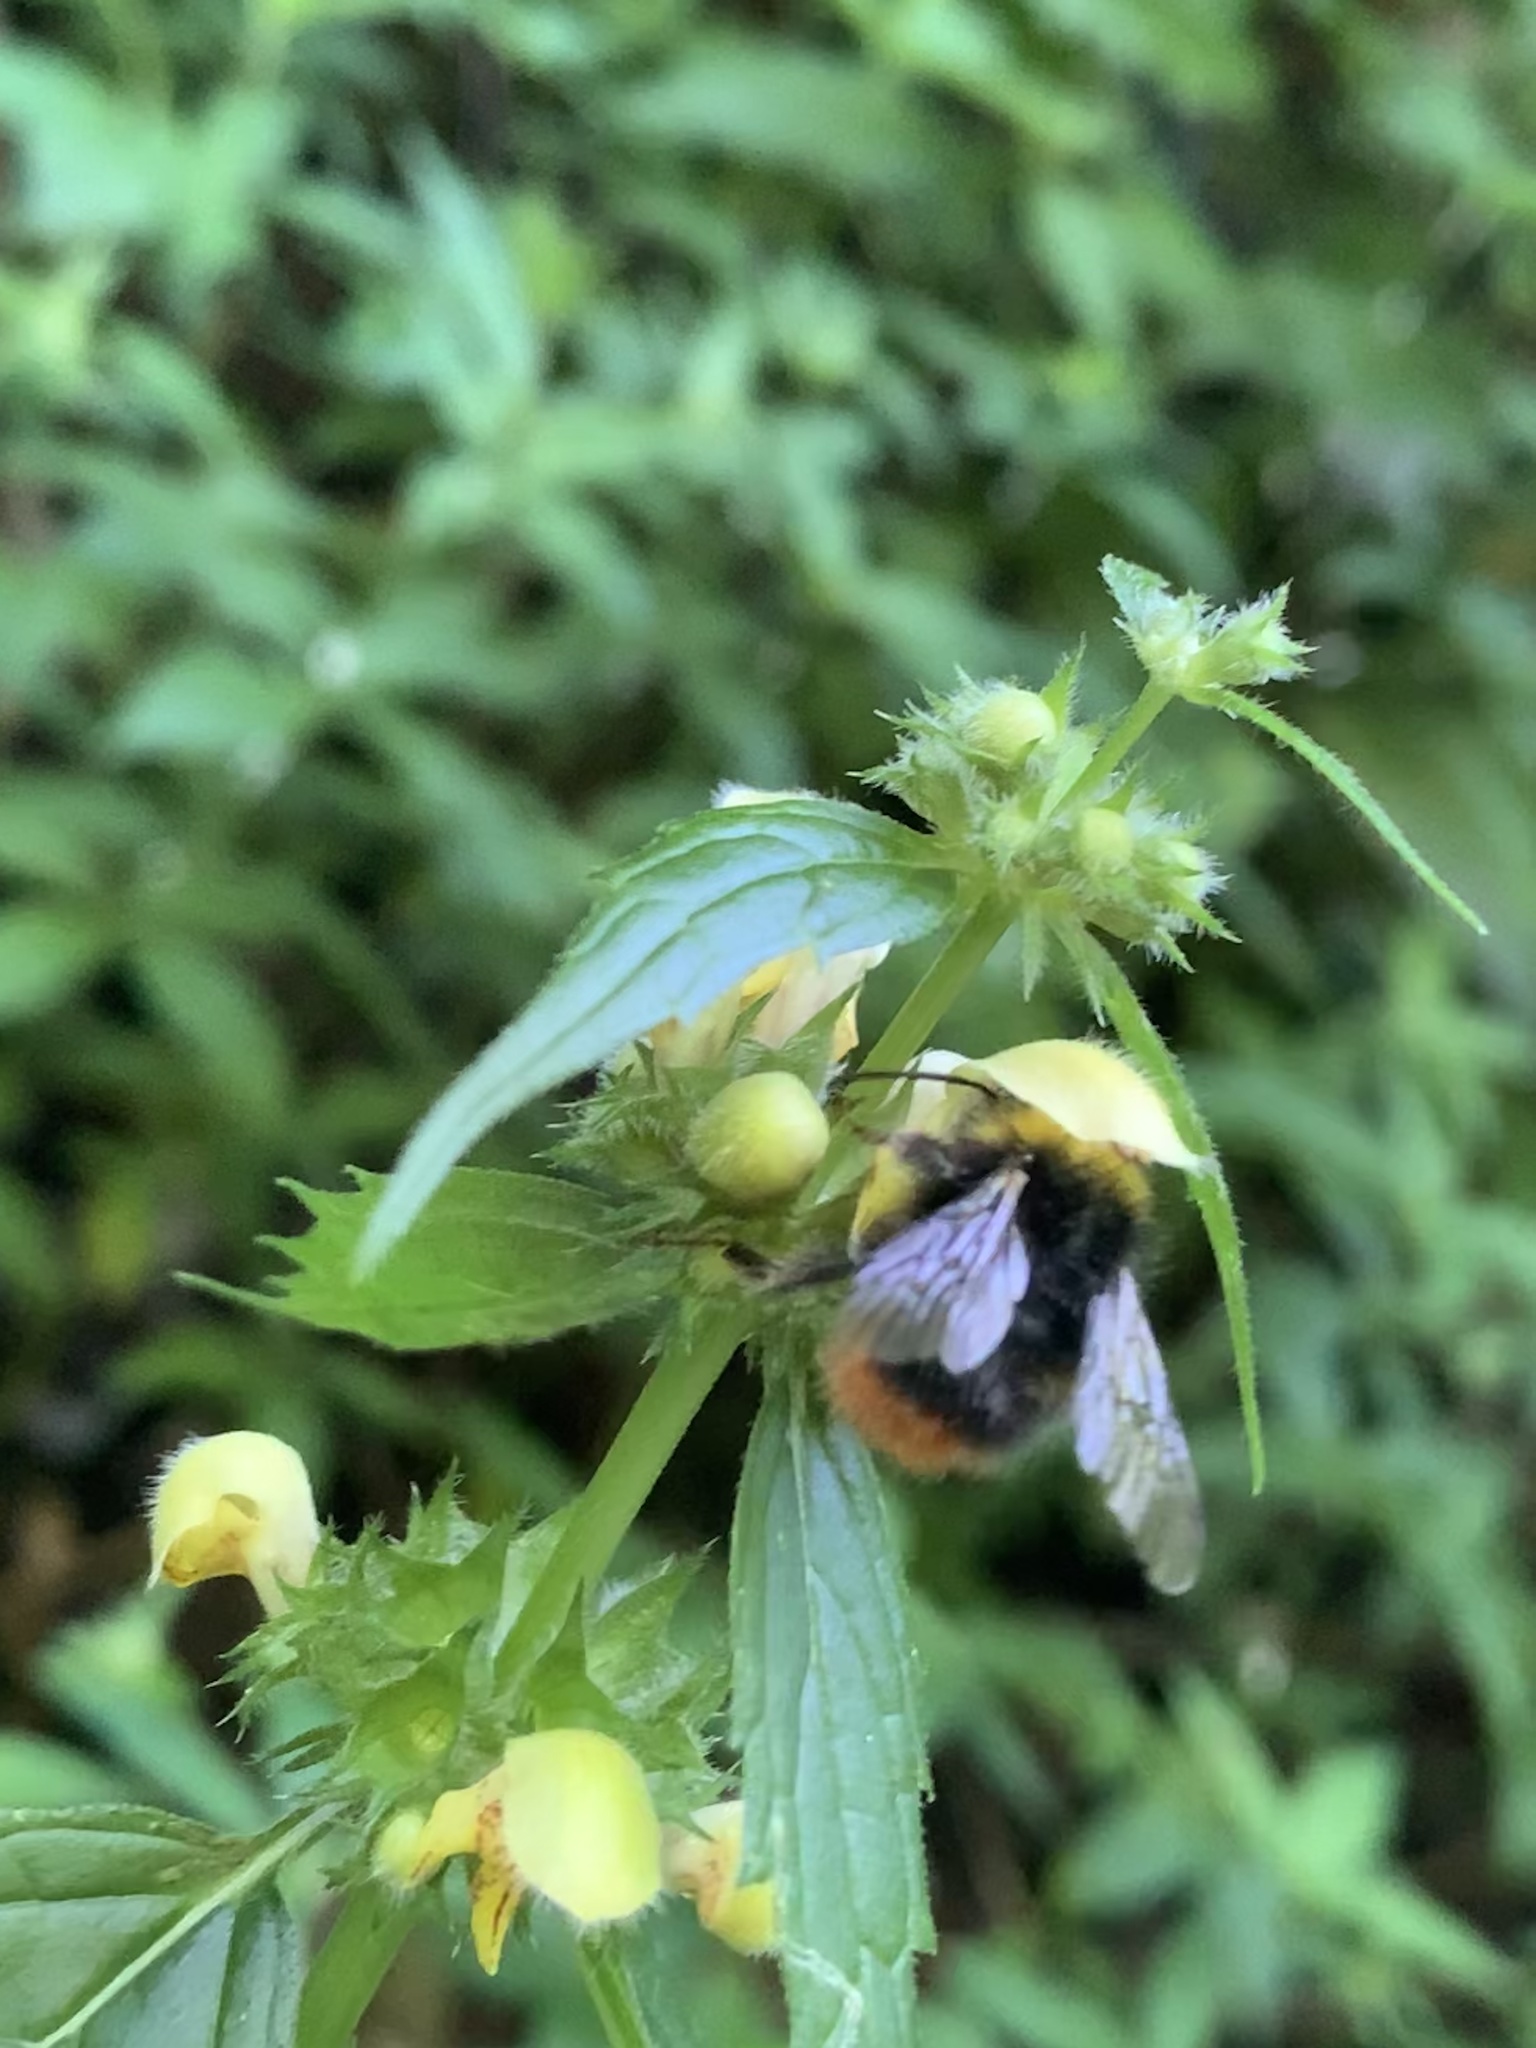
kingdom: Animalia
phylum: Arthropoda
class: Insecta
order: Hymenoptera
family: Apidae
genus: Bombus
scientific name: Bombus pratorum
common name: Early humble-bee
